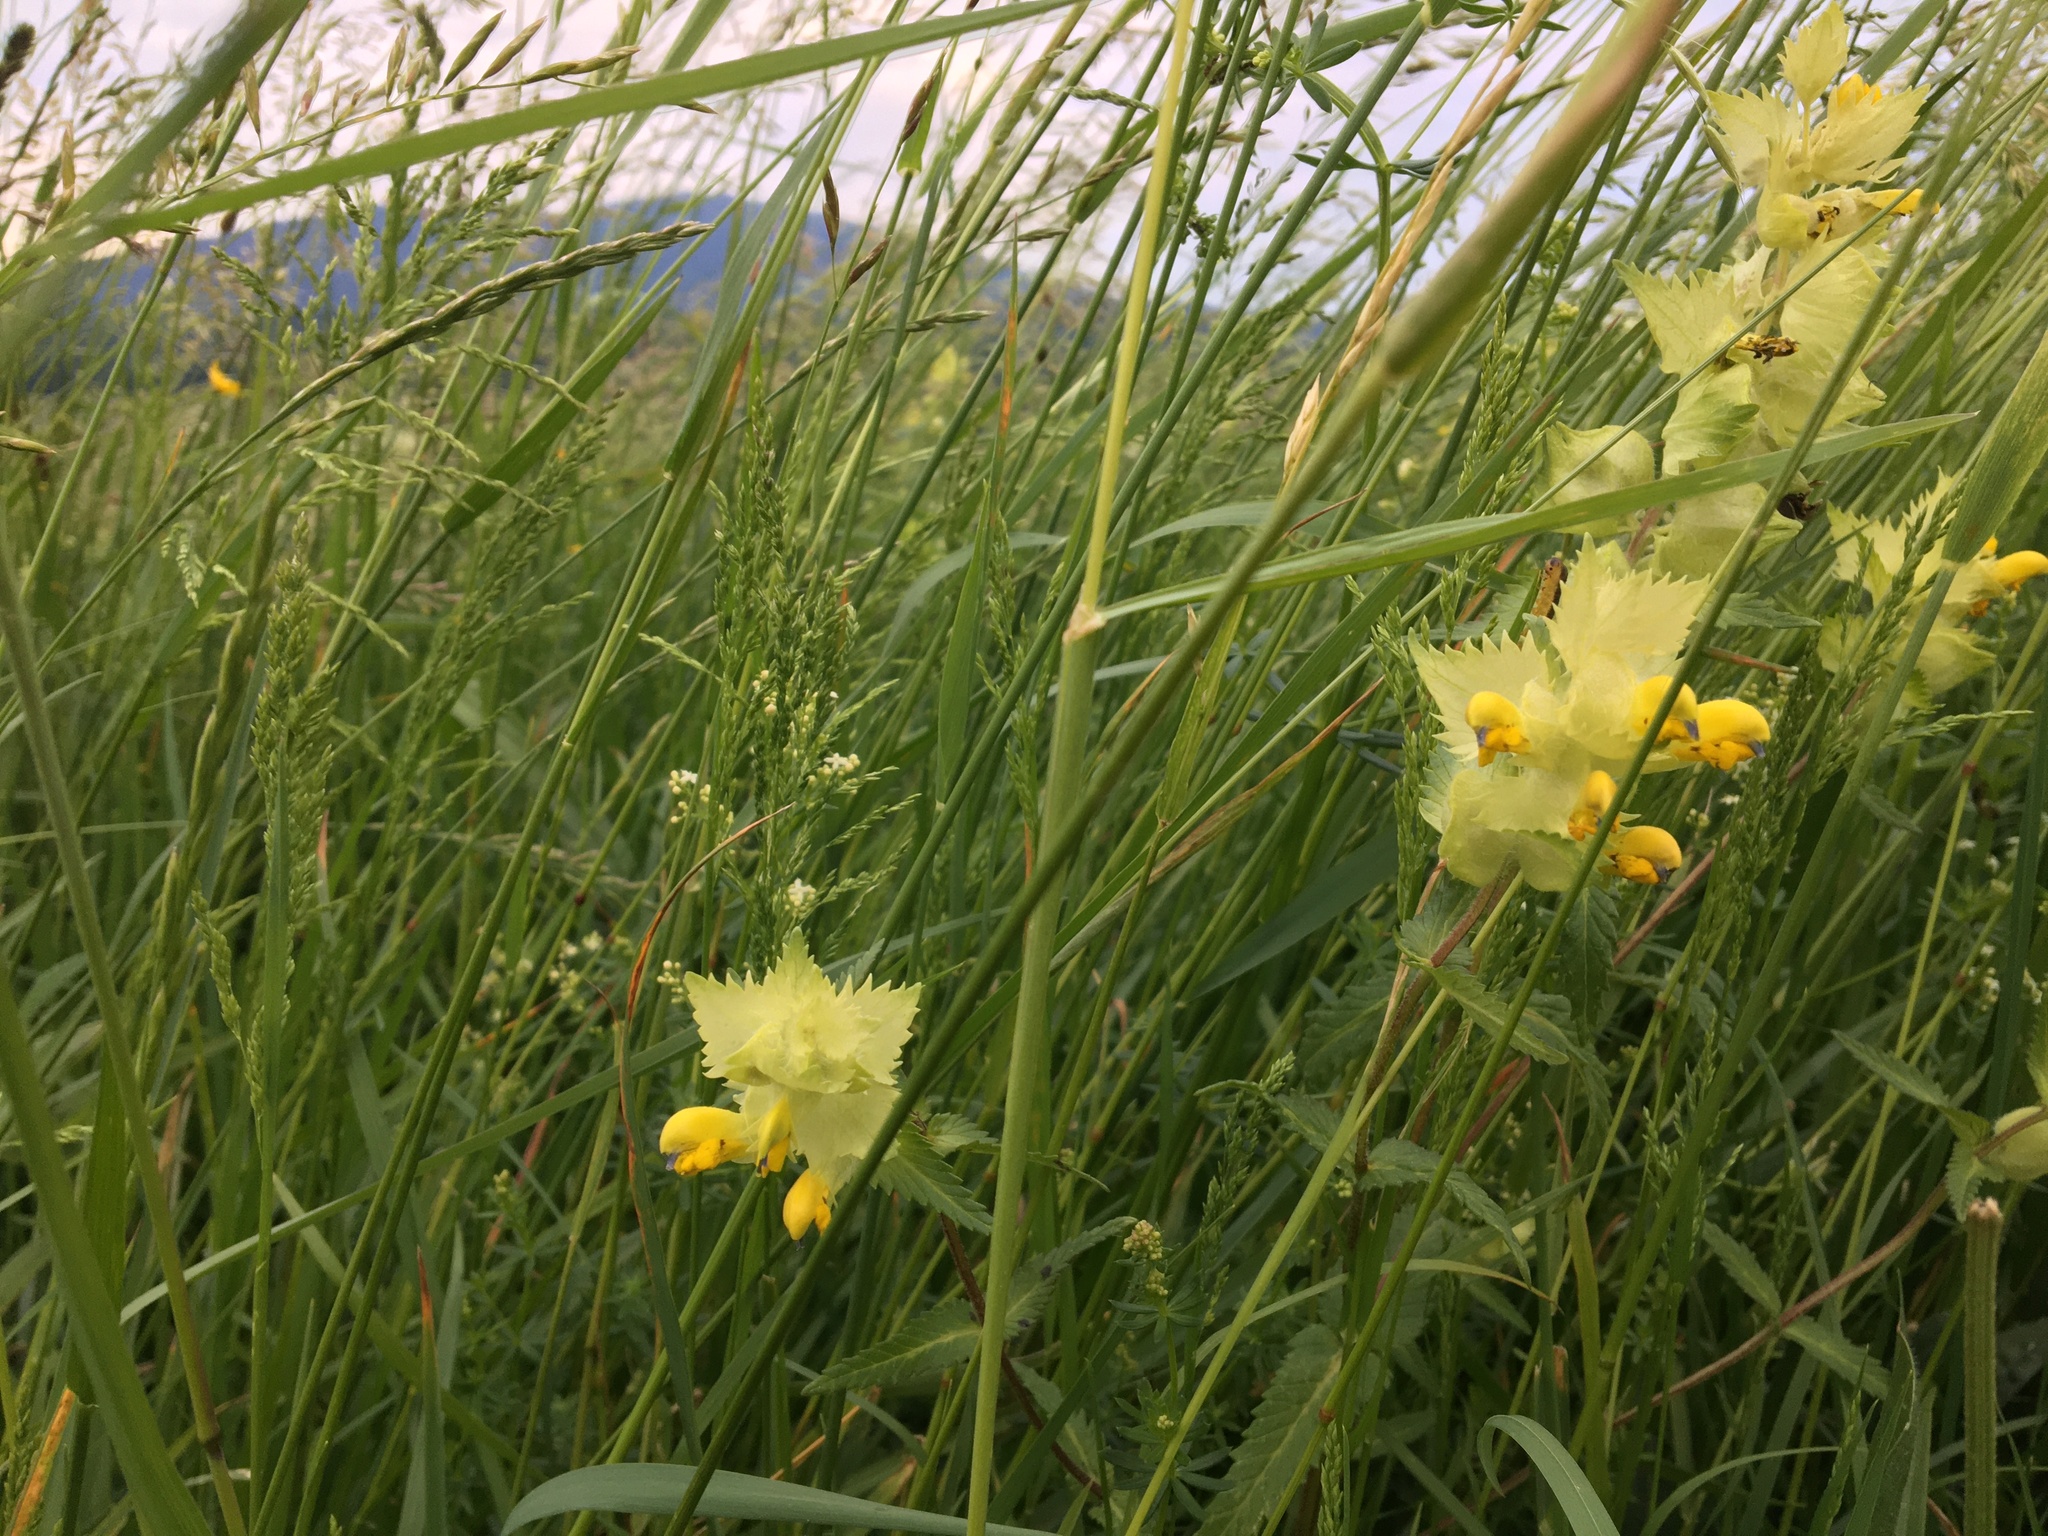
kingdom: Plantae
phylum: Tracheophyta
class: Magnoliopsida
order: Lamiales
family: Orobanchaceae
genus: Rhinanthus
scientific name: Rhinanthus alectorolophus
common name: Greater yellow-rattle
